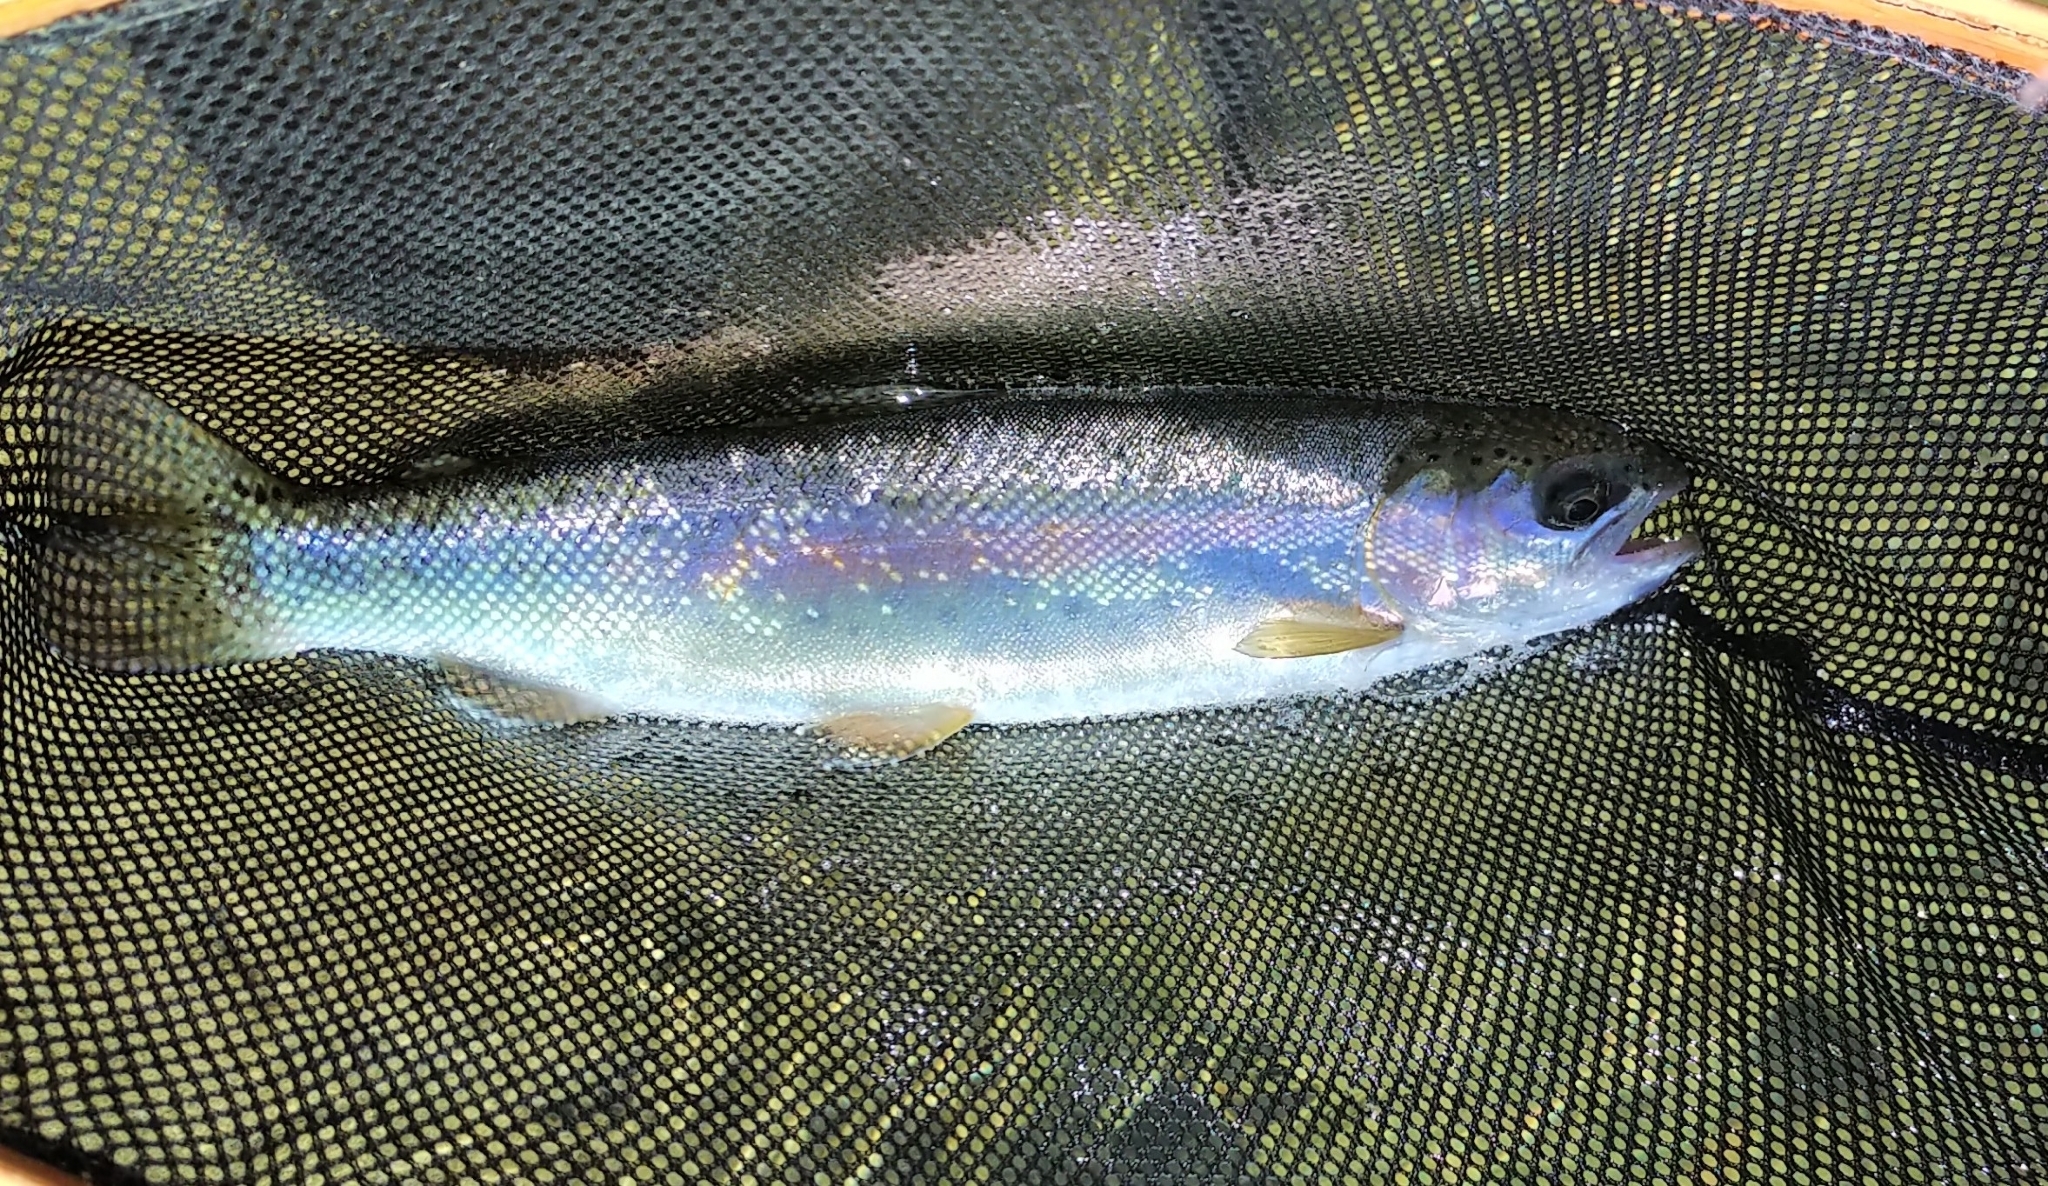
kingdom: Animalia
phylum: Chordata
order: Salmoniformes
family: Salmonidae
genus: Oncorhynchus
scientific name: Oncorhynchus mykiss
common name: Rainbow trout
